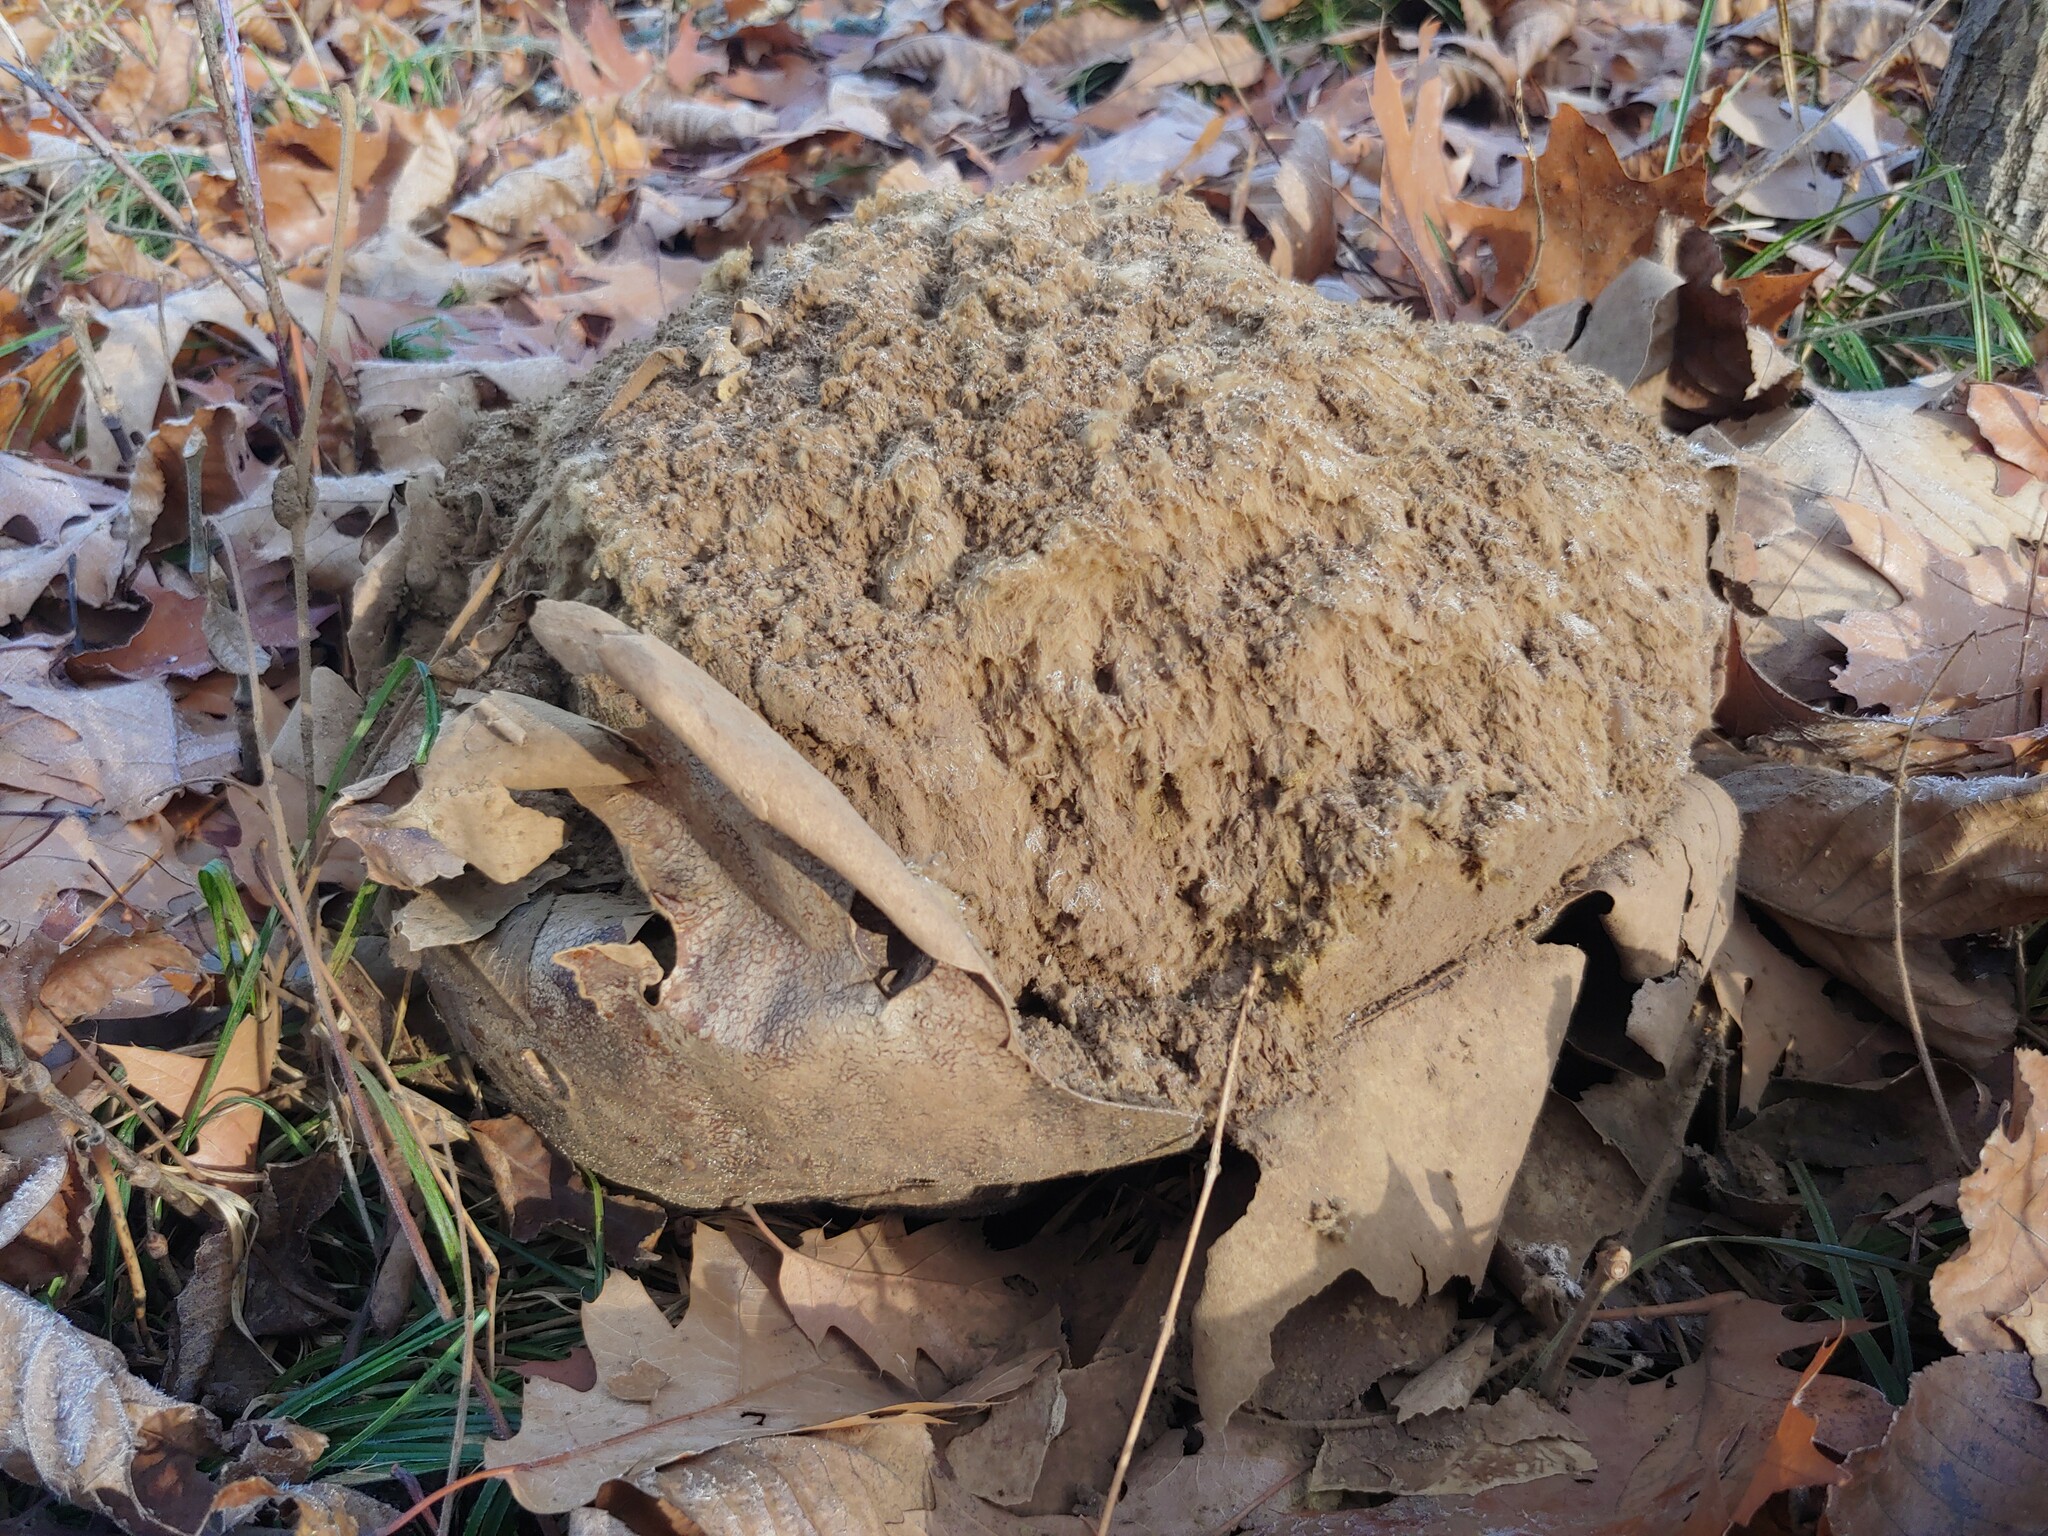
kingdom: Fungi
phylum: Basidiomycota
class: Agaricomycetes
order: Agaricales
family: Lycoperdaceae
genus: Calvatia
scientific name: Calvatia gigantea
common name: Giant puffball
